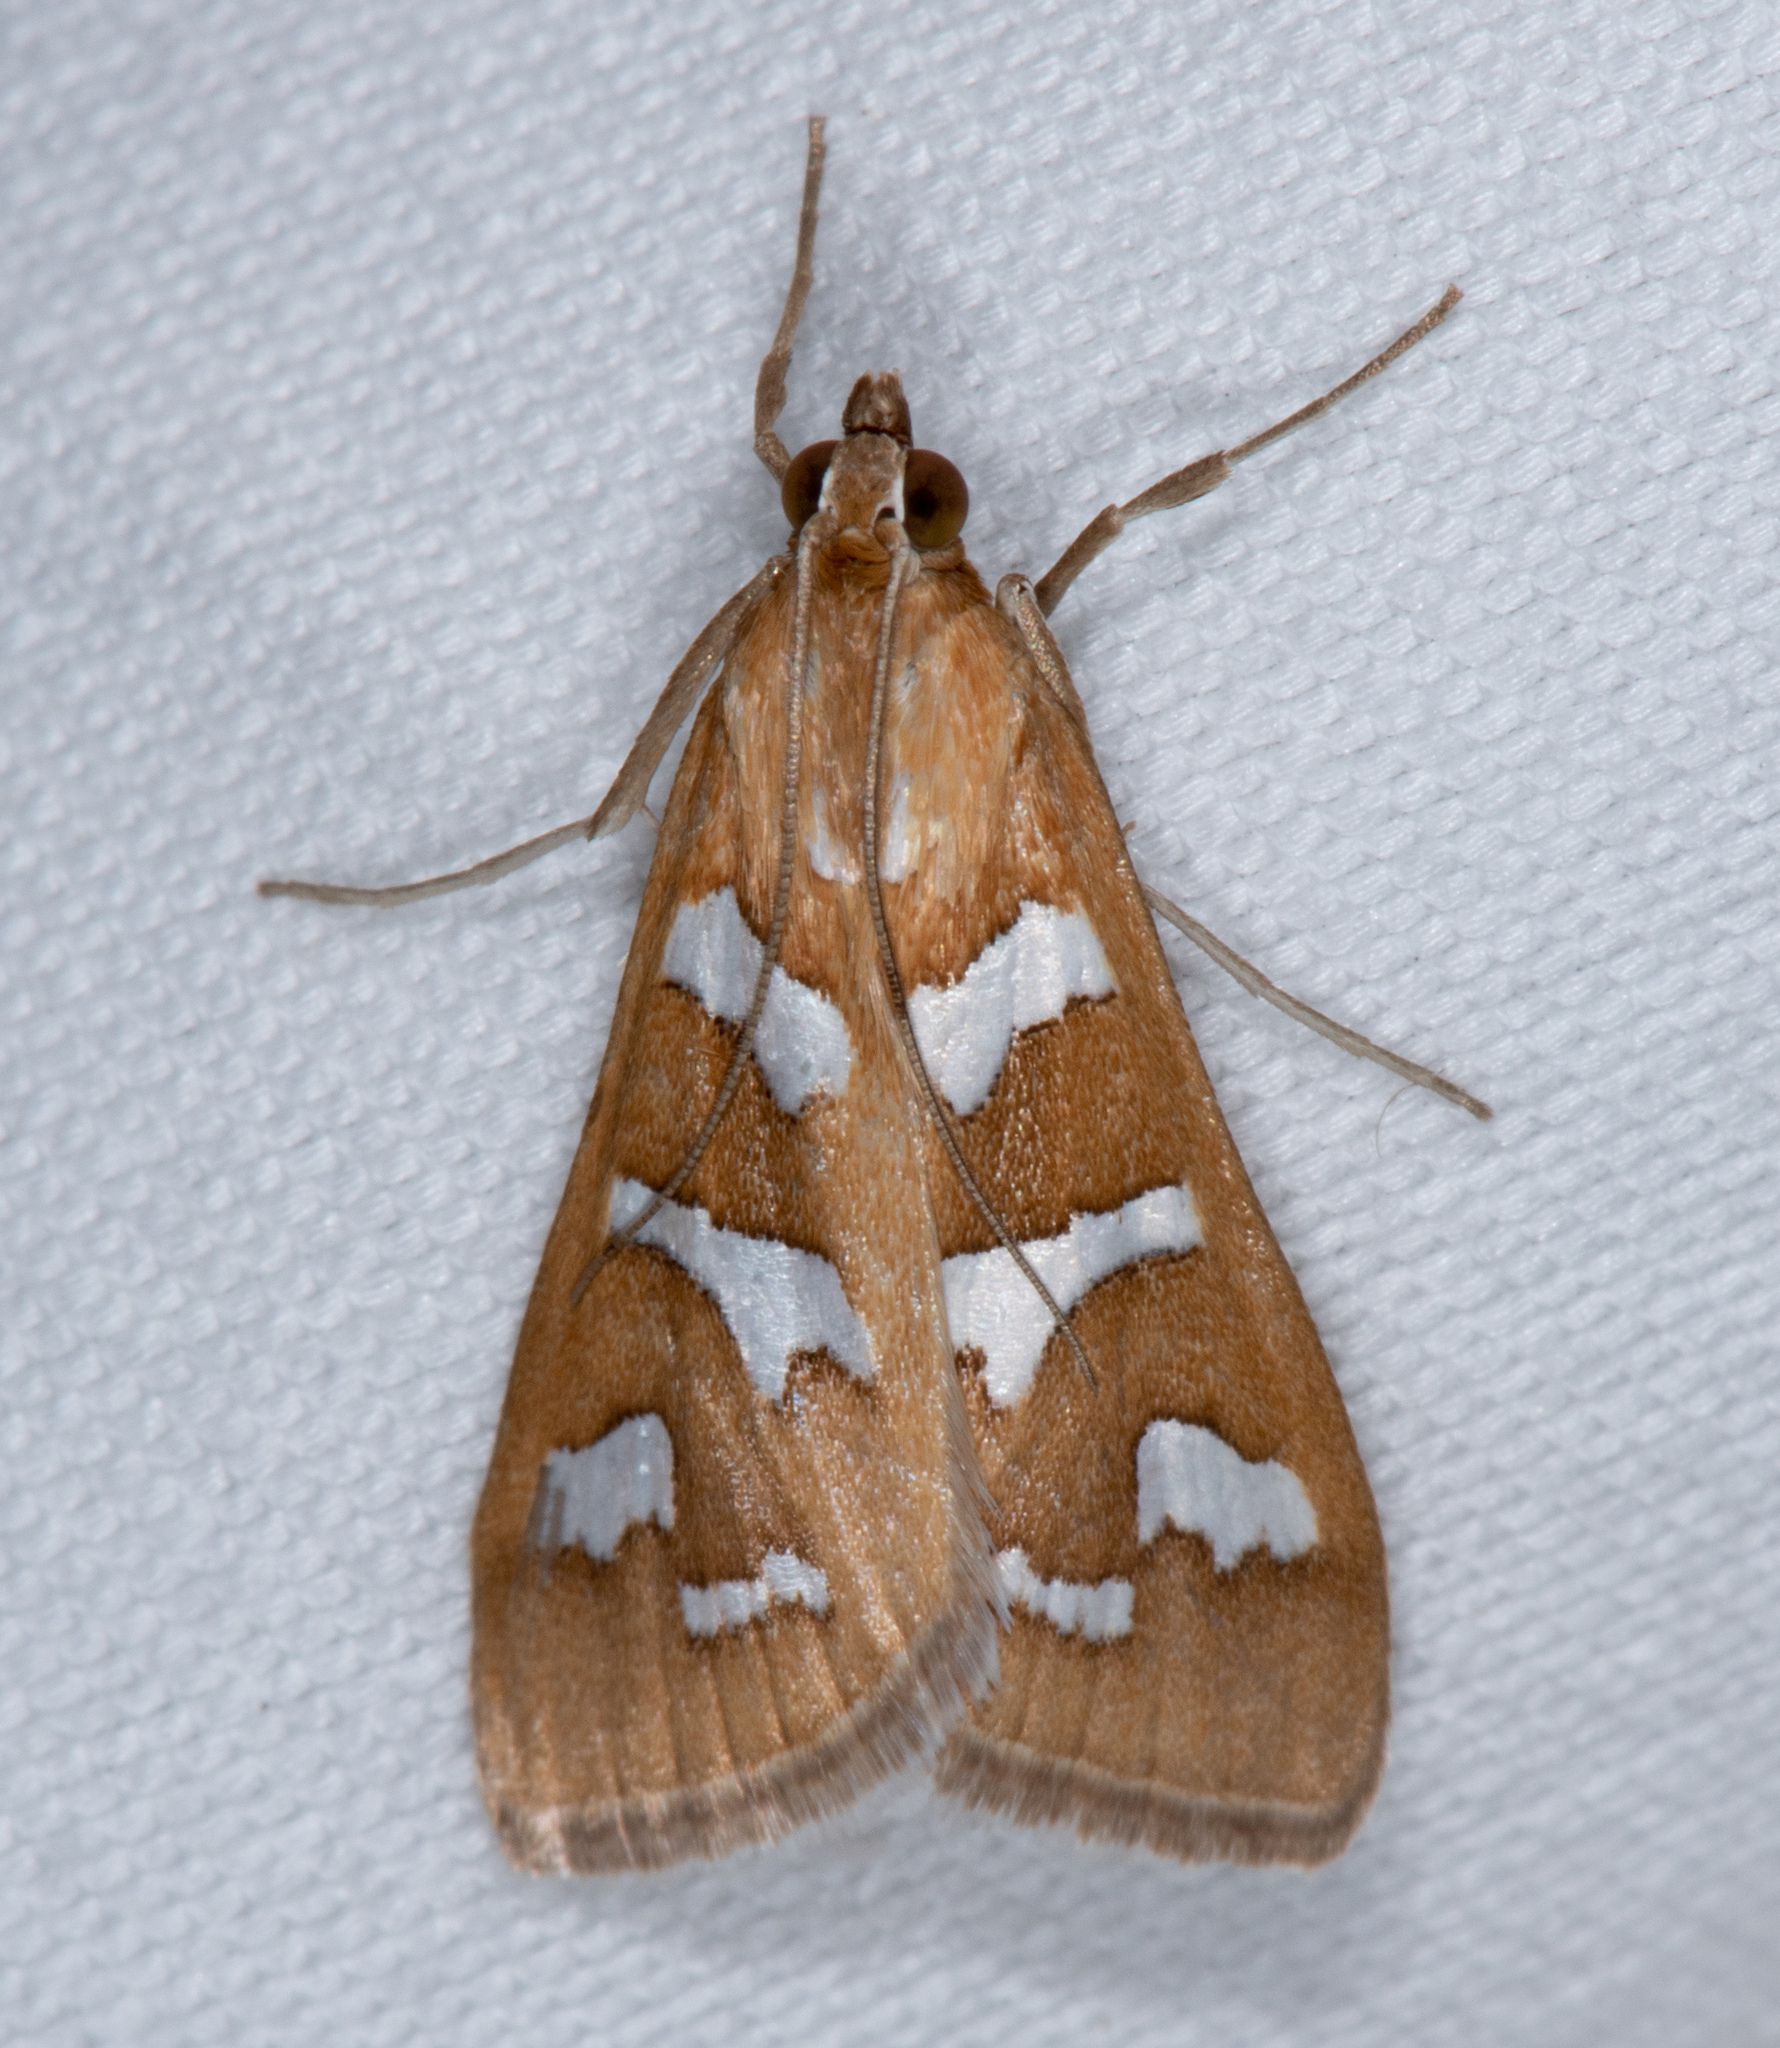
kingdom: Animalia
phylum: Arthropoda
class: Insecta
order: Lepidoptera
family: Crambidae
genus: Diastictis
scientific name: Diastictis fracturalis
